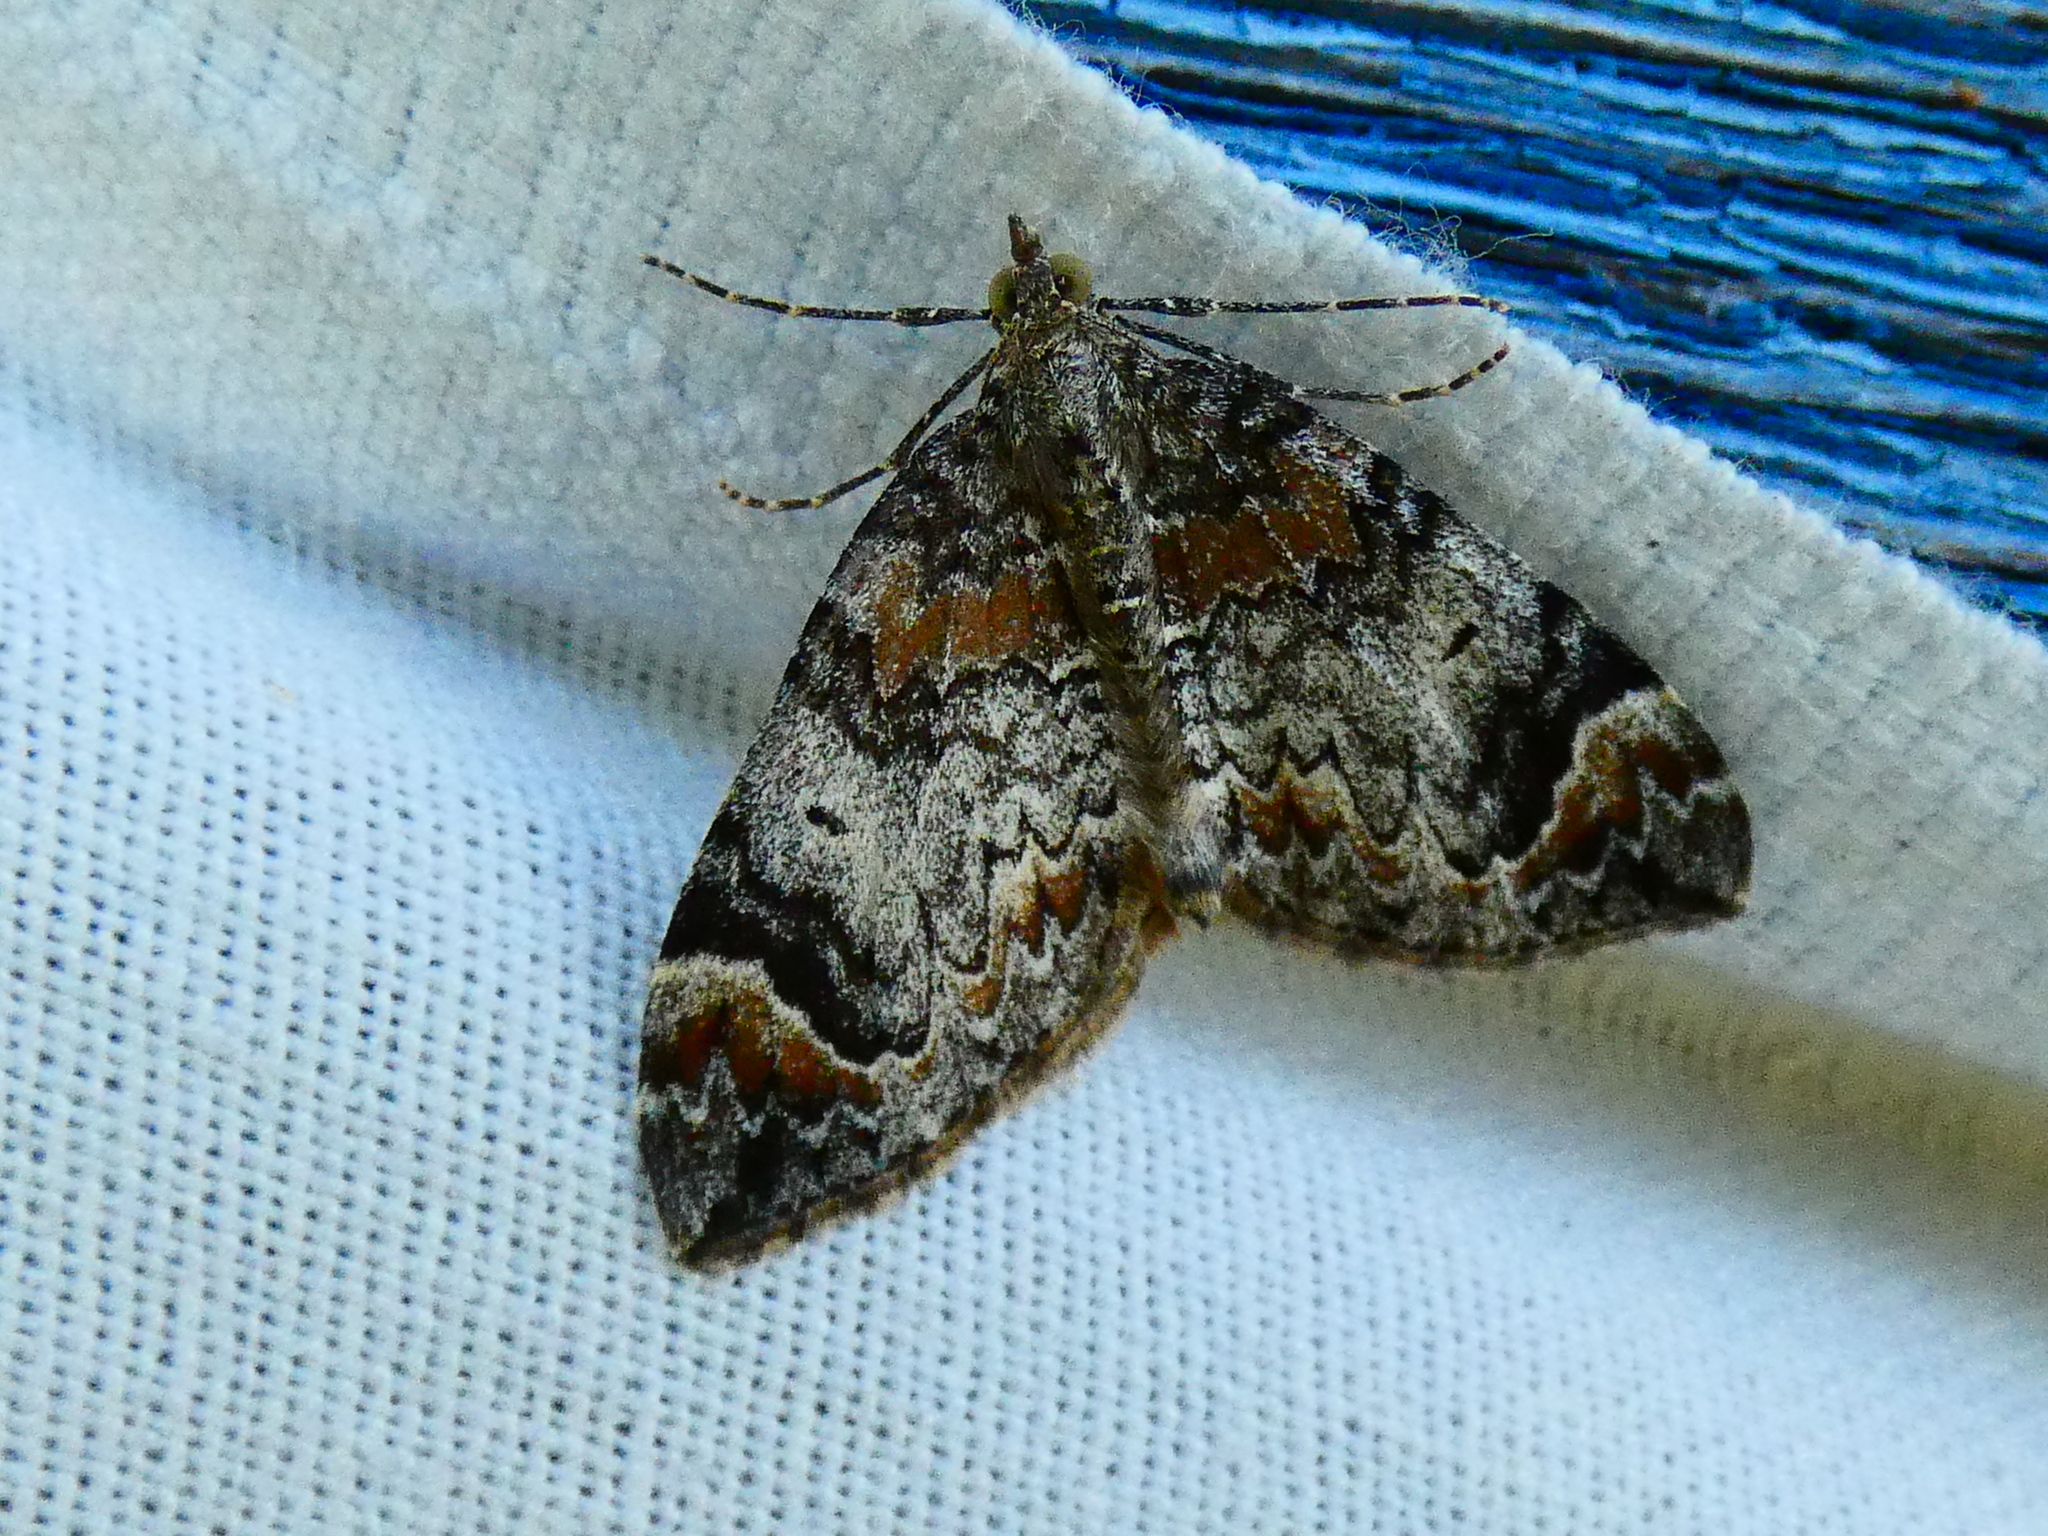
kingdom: Animalia
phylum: Arthropoda
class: Insecta
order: Lepidoptera
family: Geometridae
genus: Dysstroma
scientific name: Dysstroma citrata
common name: Dark marbled carpet
